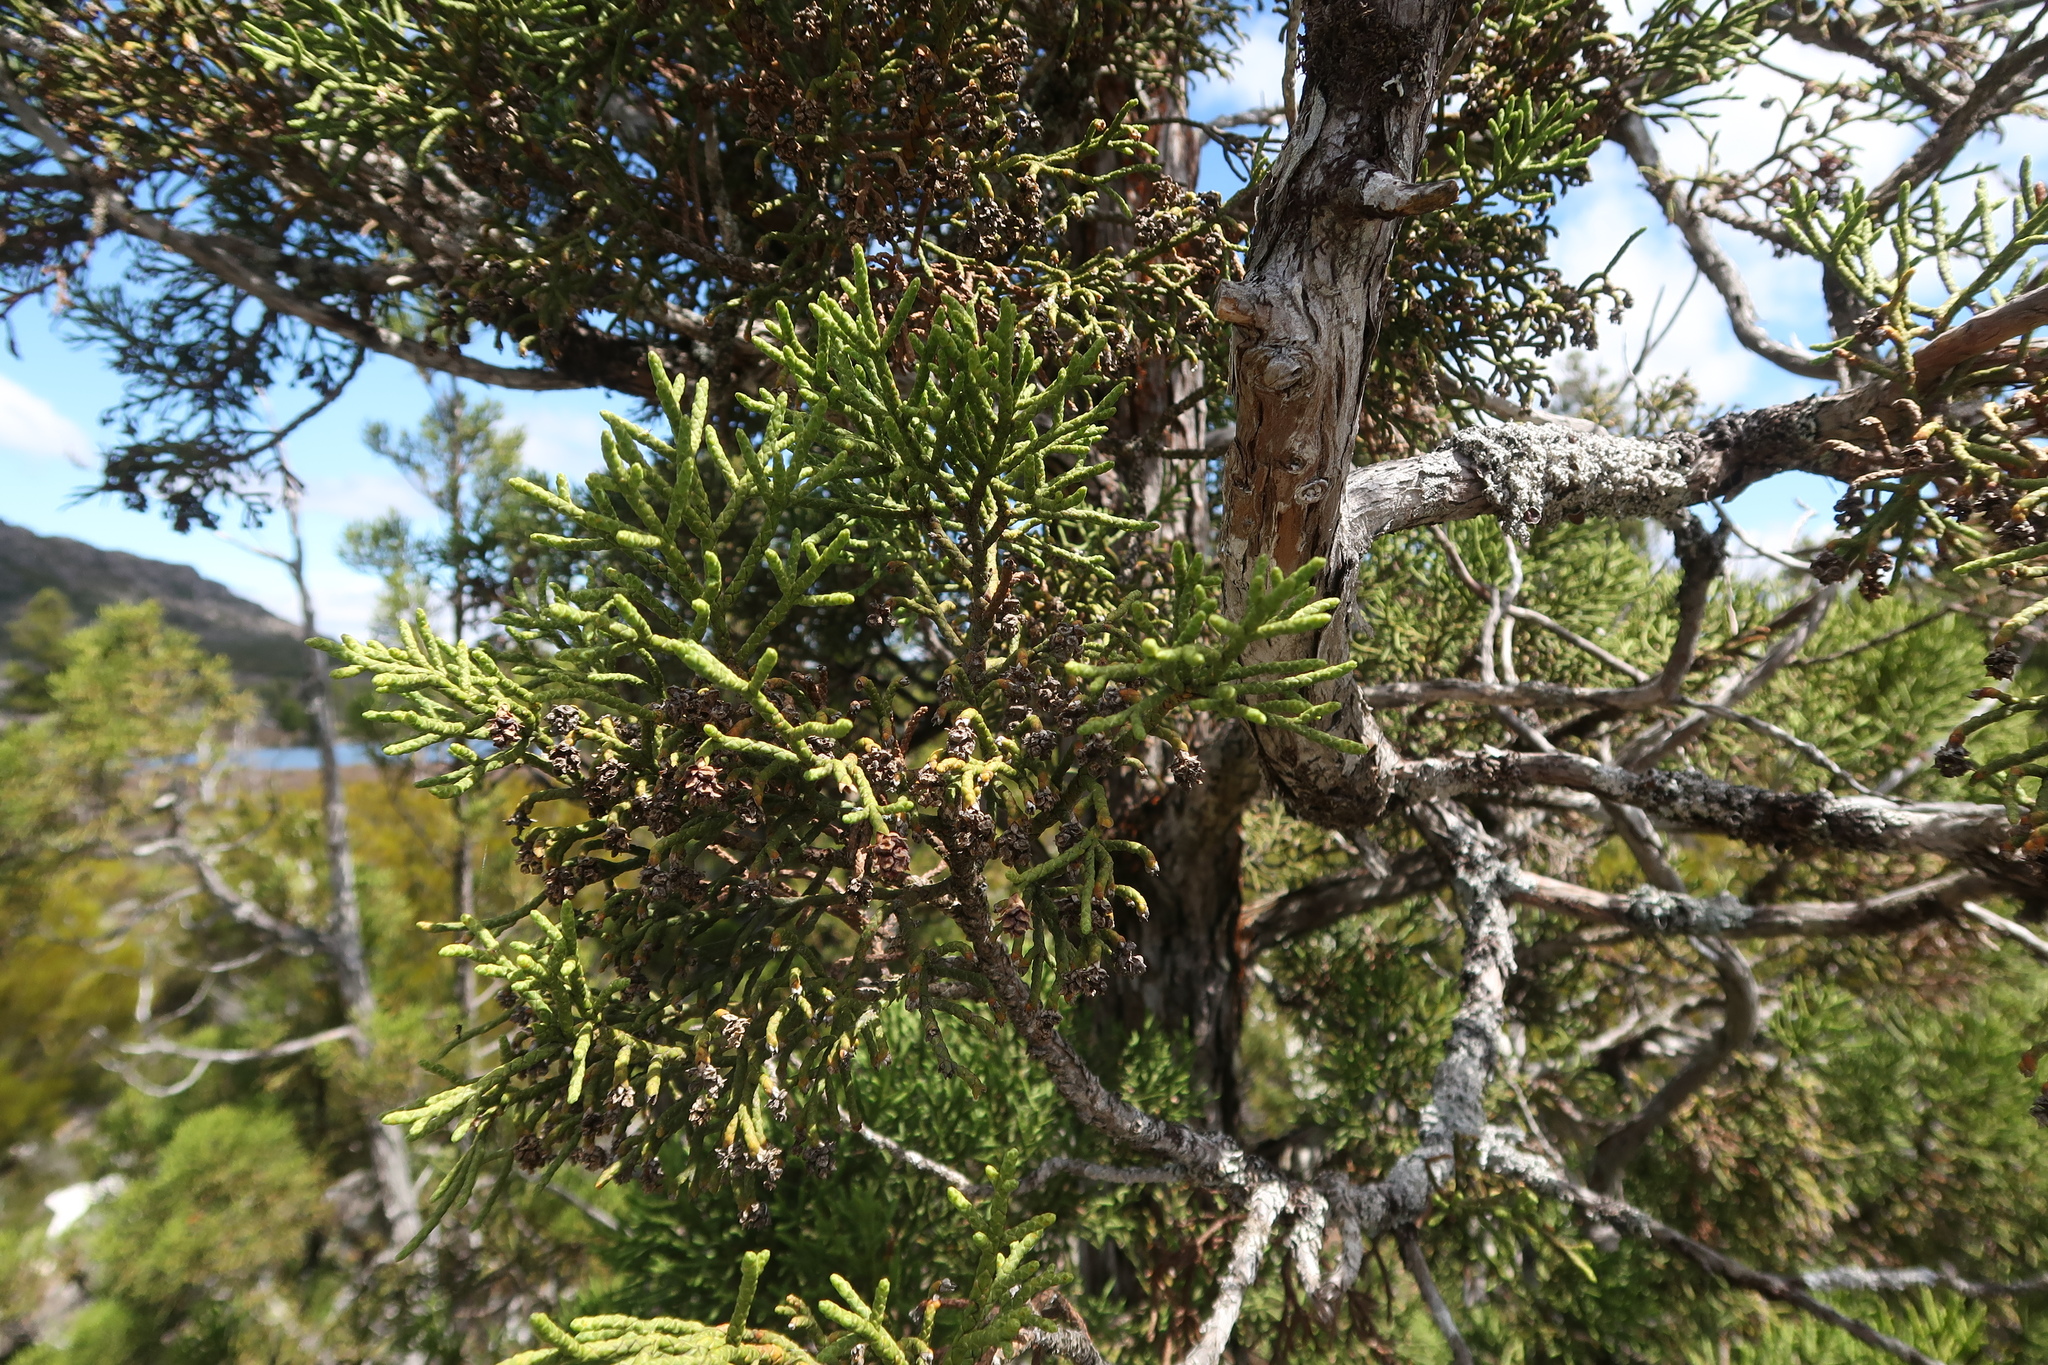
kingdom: Plantae
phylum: Tracheophyta
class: Pinopsida
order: Pinales
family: Cupressaceae
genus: Athrotaxis
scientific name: Athrotaxis cupressoides
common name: Tasmanian pencil pine
